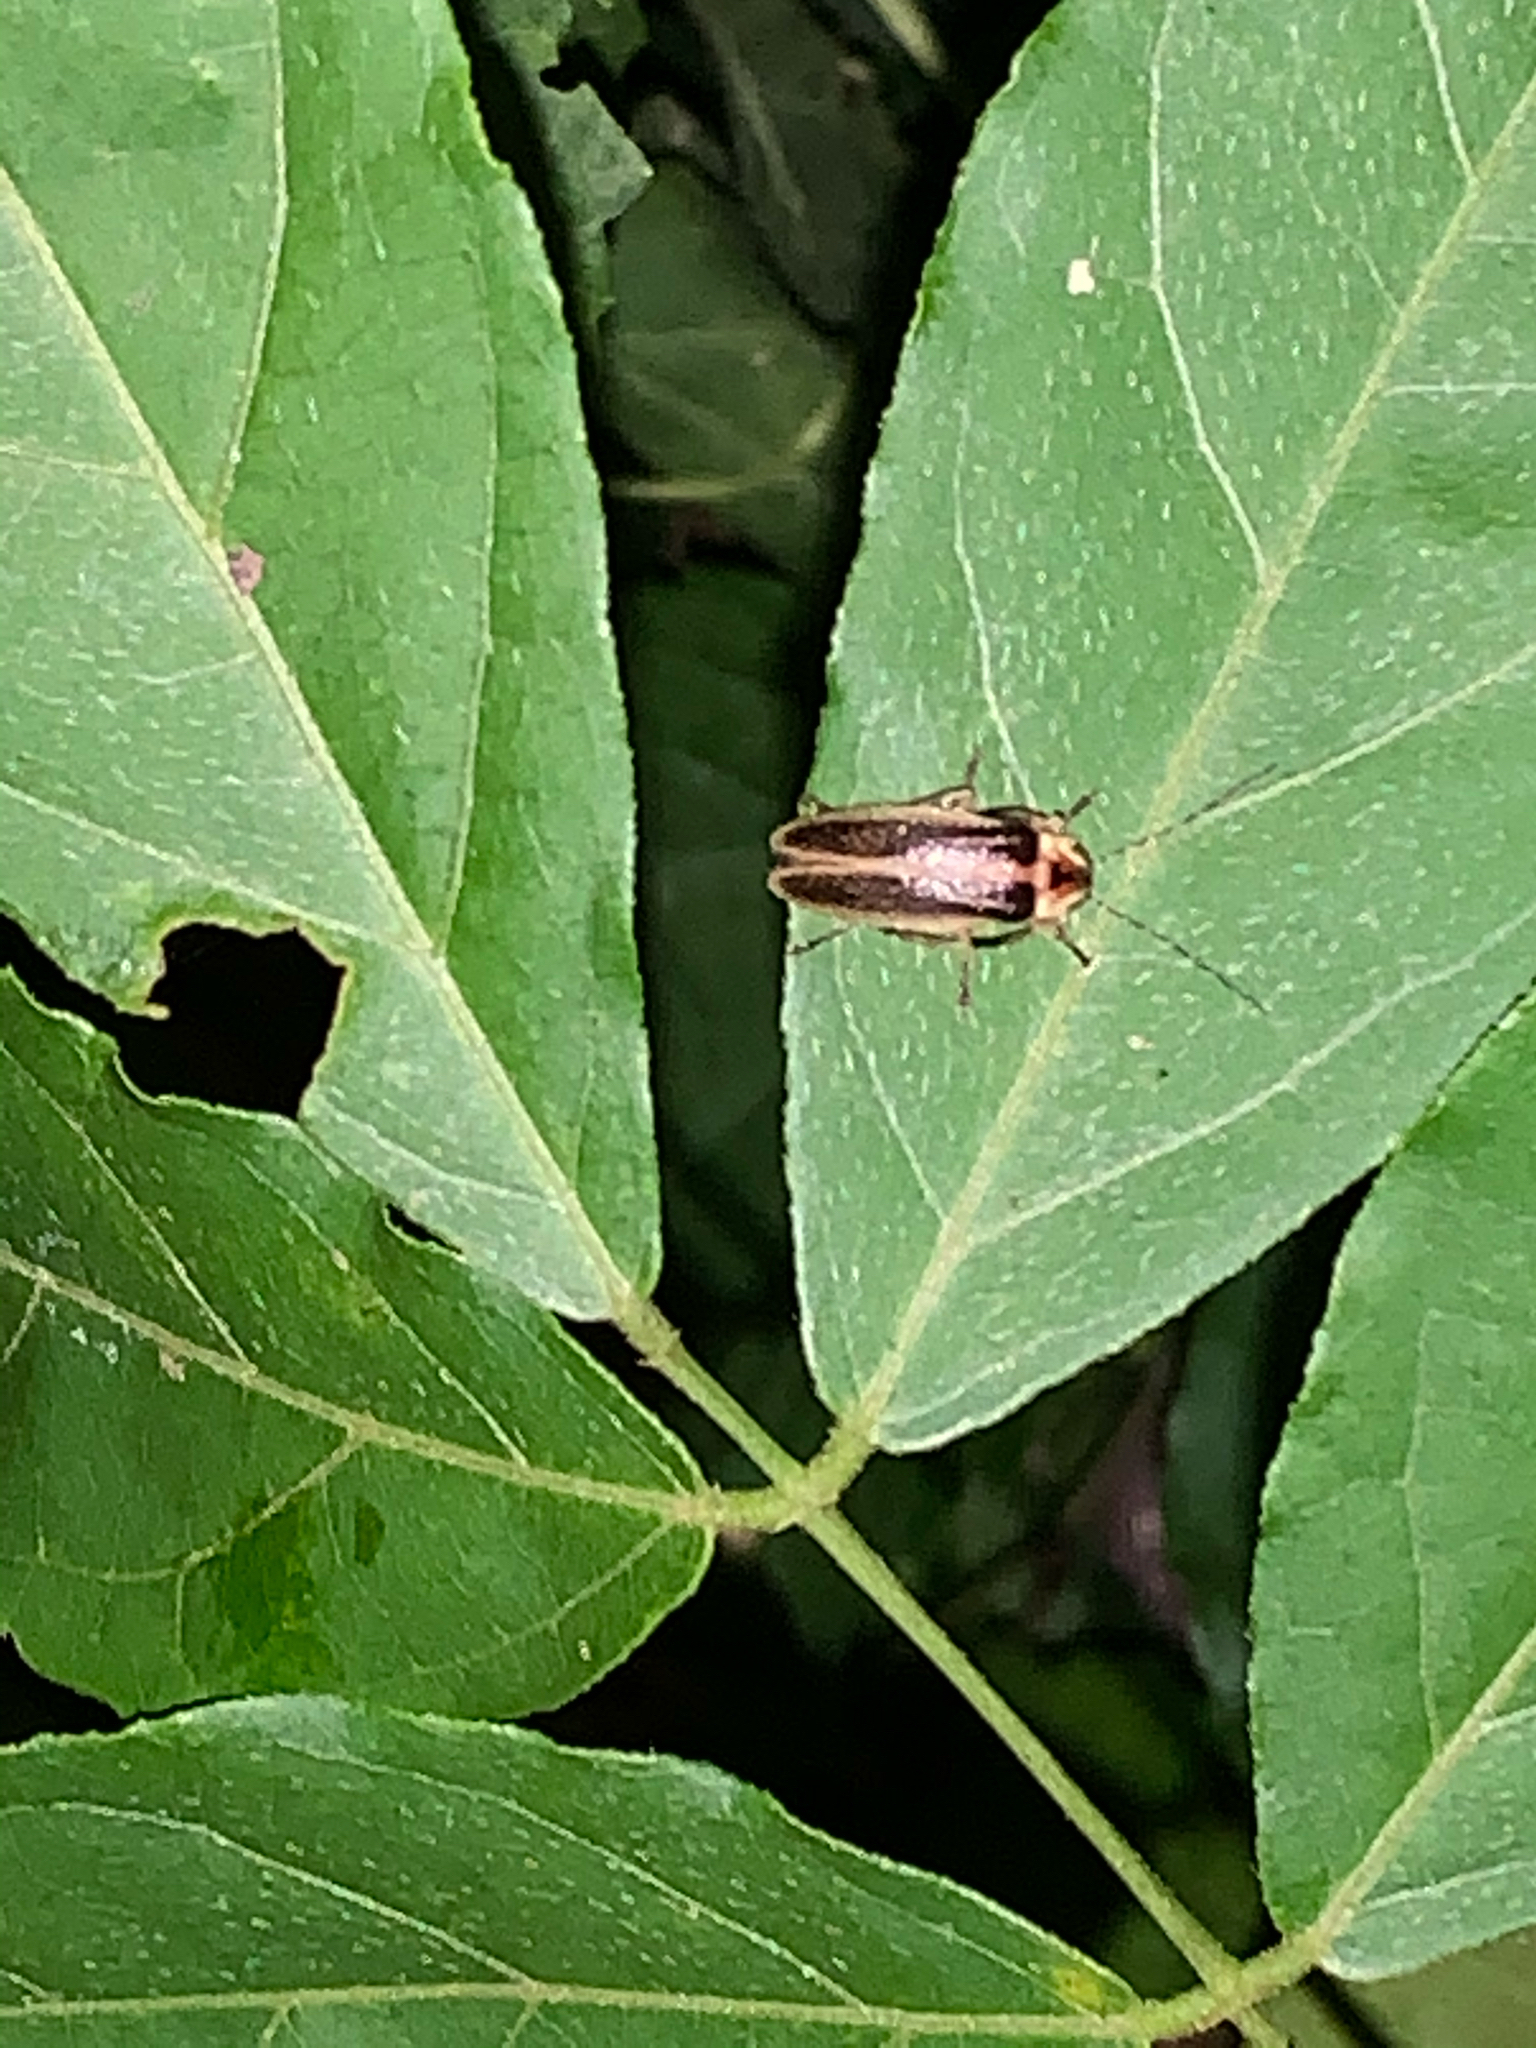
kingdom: Animalia
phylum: Arthropoda
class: Insecta
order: Coleoptera
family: Lampyridae
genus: Photuris
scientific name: Photuris
